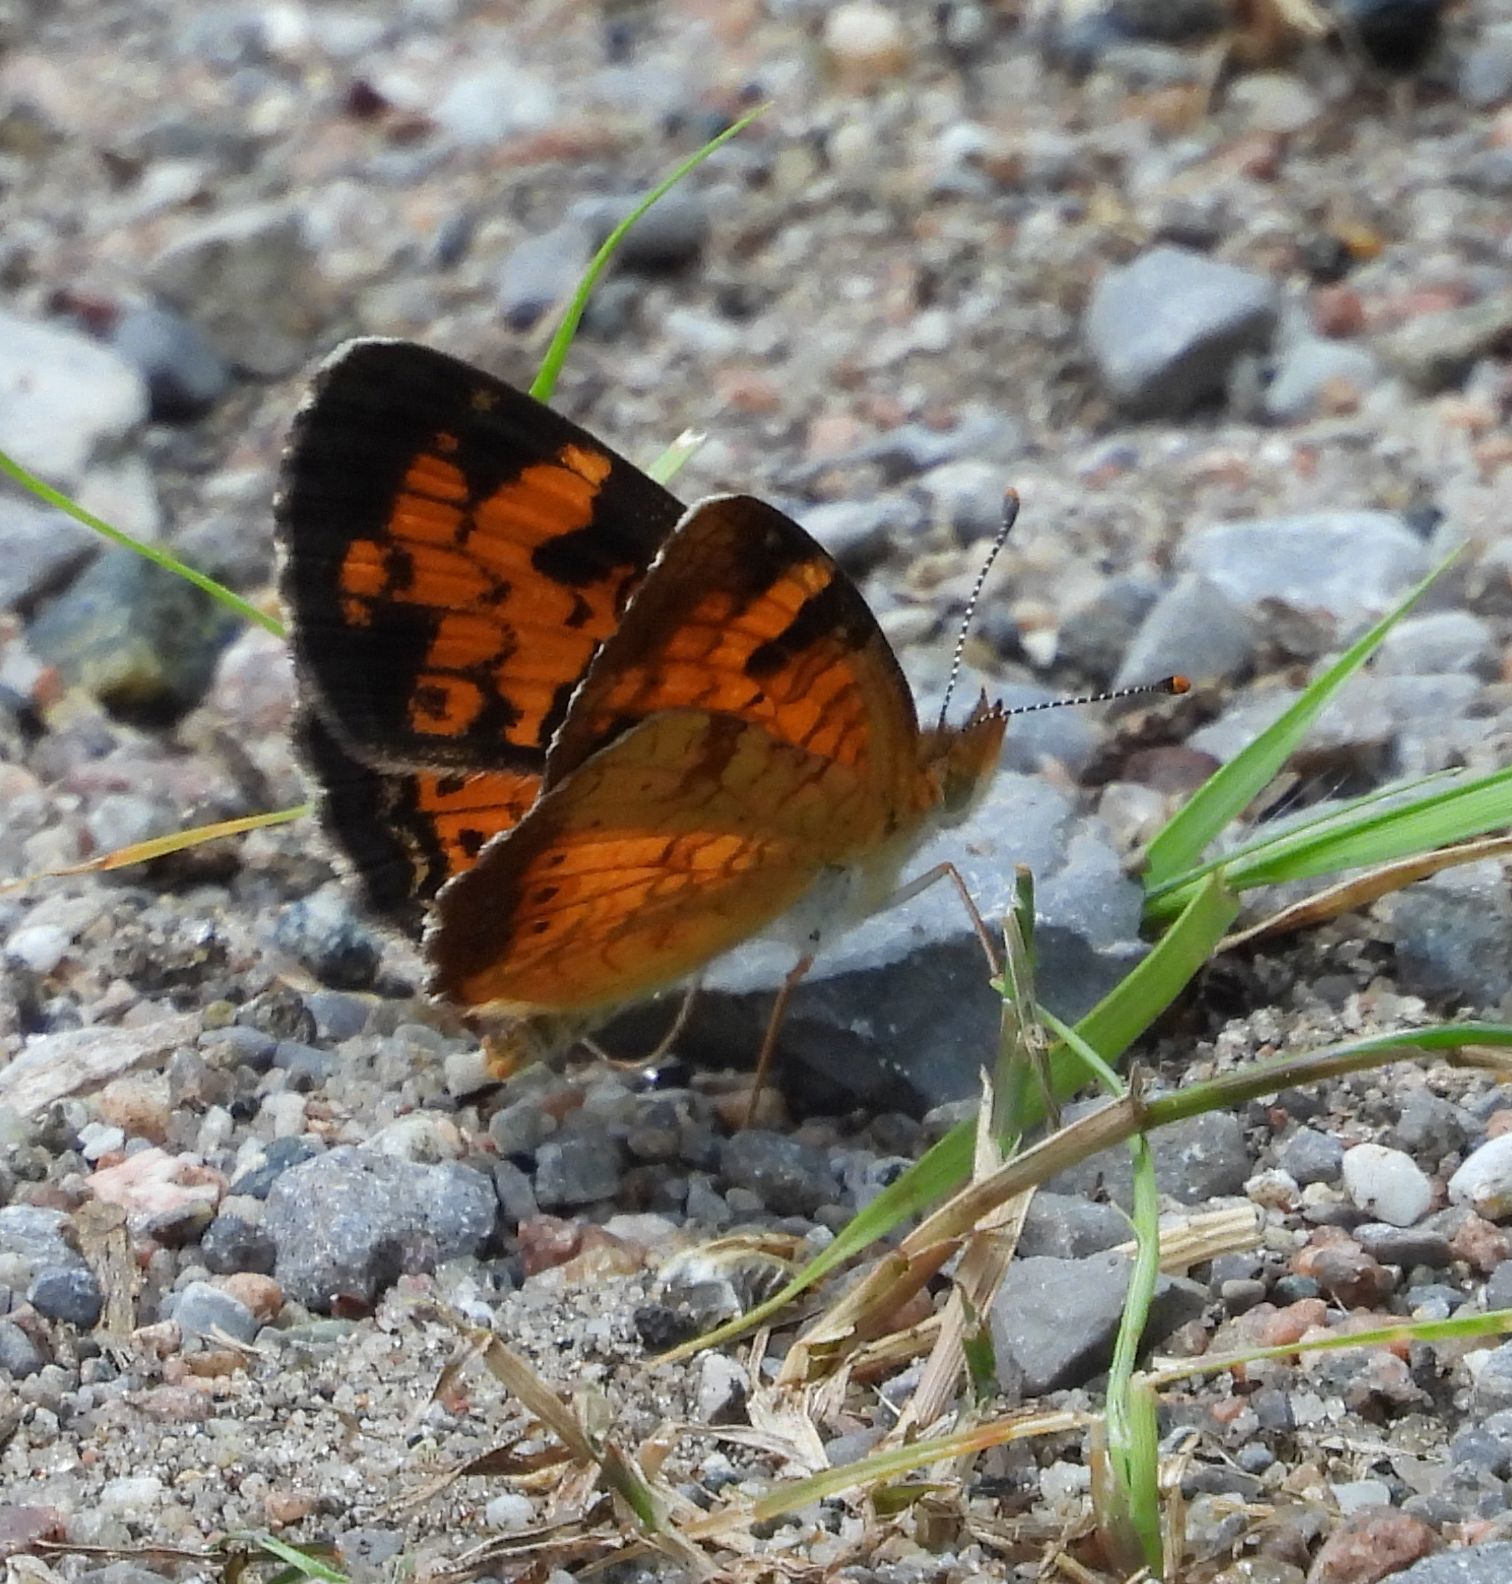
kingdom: Animalia
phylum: Arthropoda
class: Insecta
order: Lepidoptera
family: Nymphalidae
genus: Phyciodes
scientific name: Phyciodes tharos
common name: Pearl crescent
